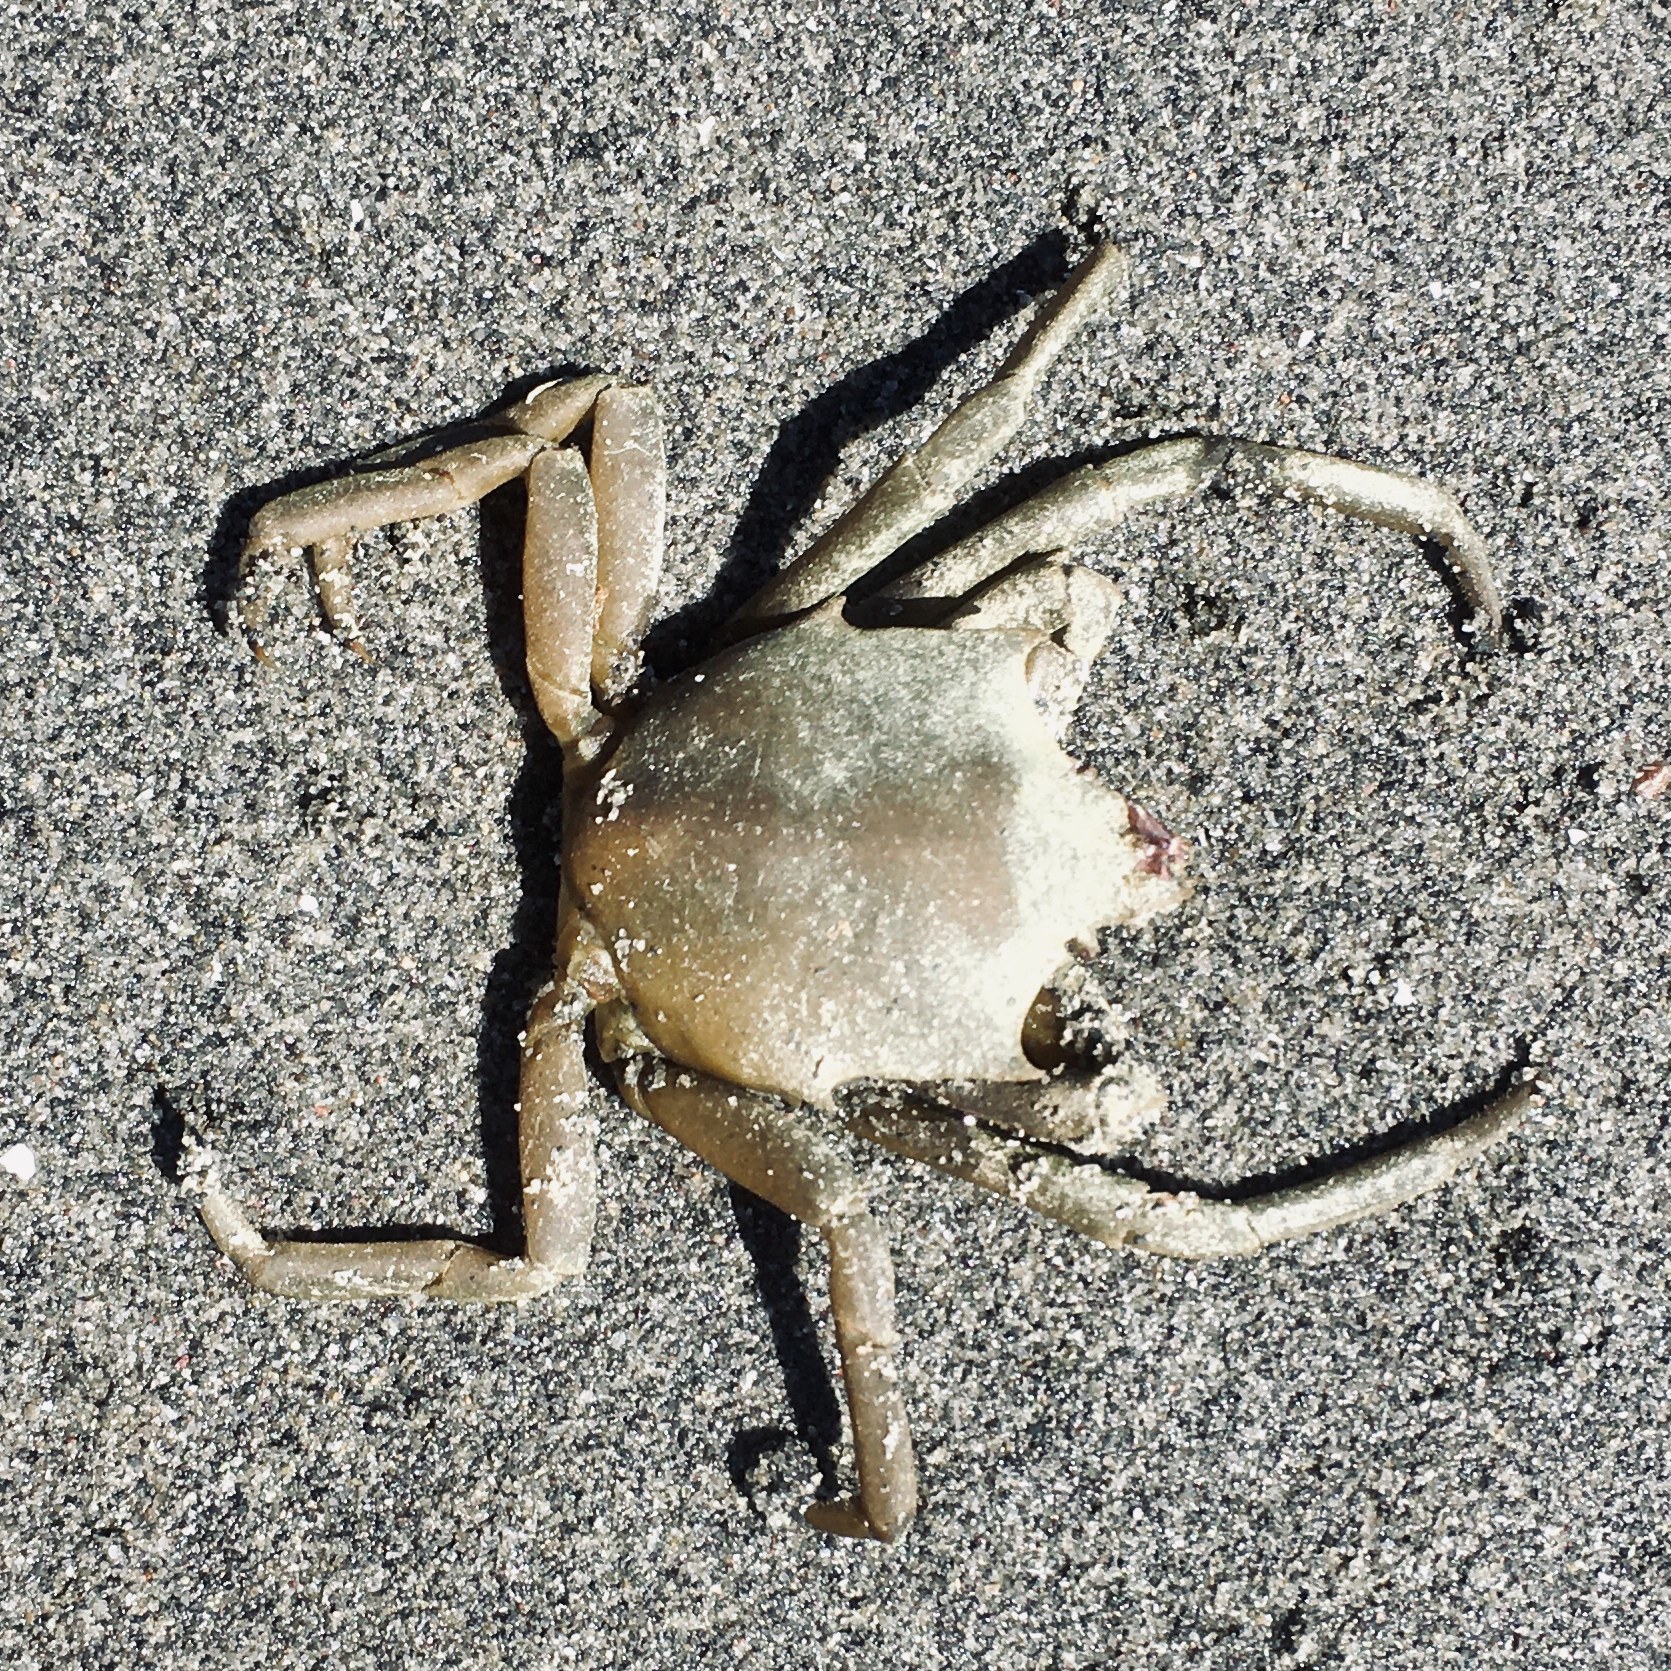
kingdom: Animalia
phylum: Arthropoda
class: Malacostraca
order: Decapoda
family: Epialtidae
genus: Pugettia
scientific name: Pugettia producta
